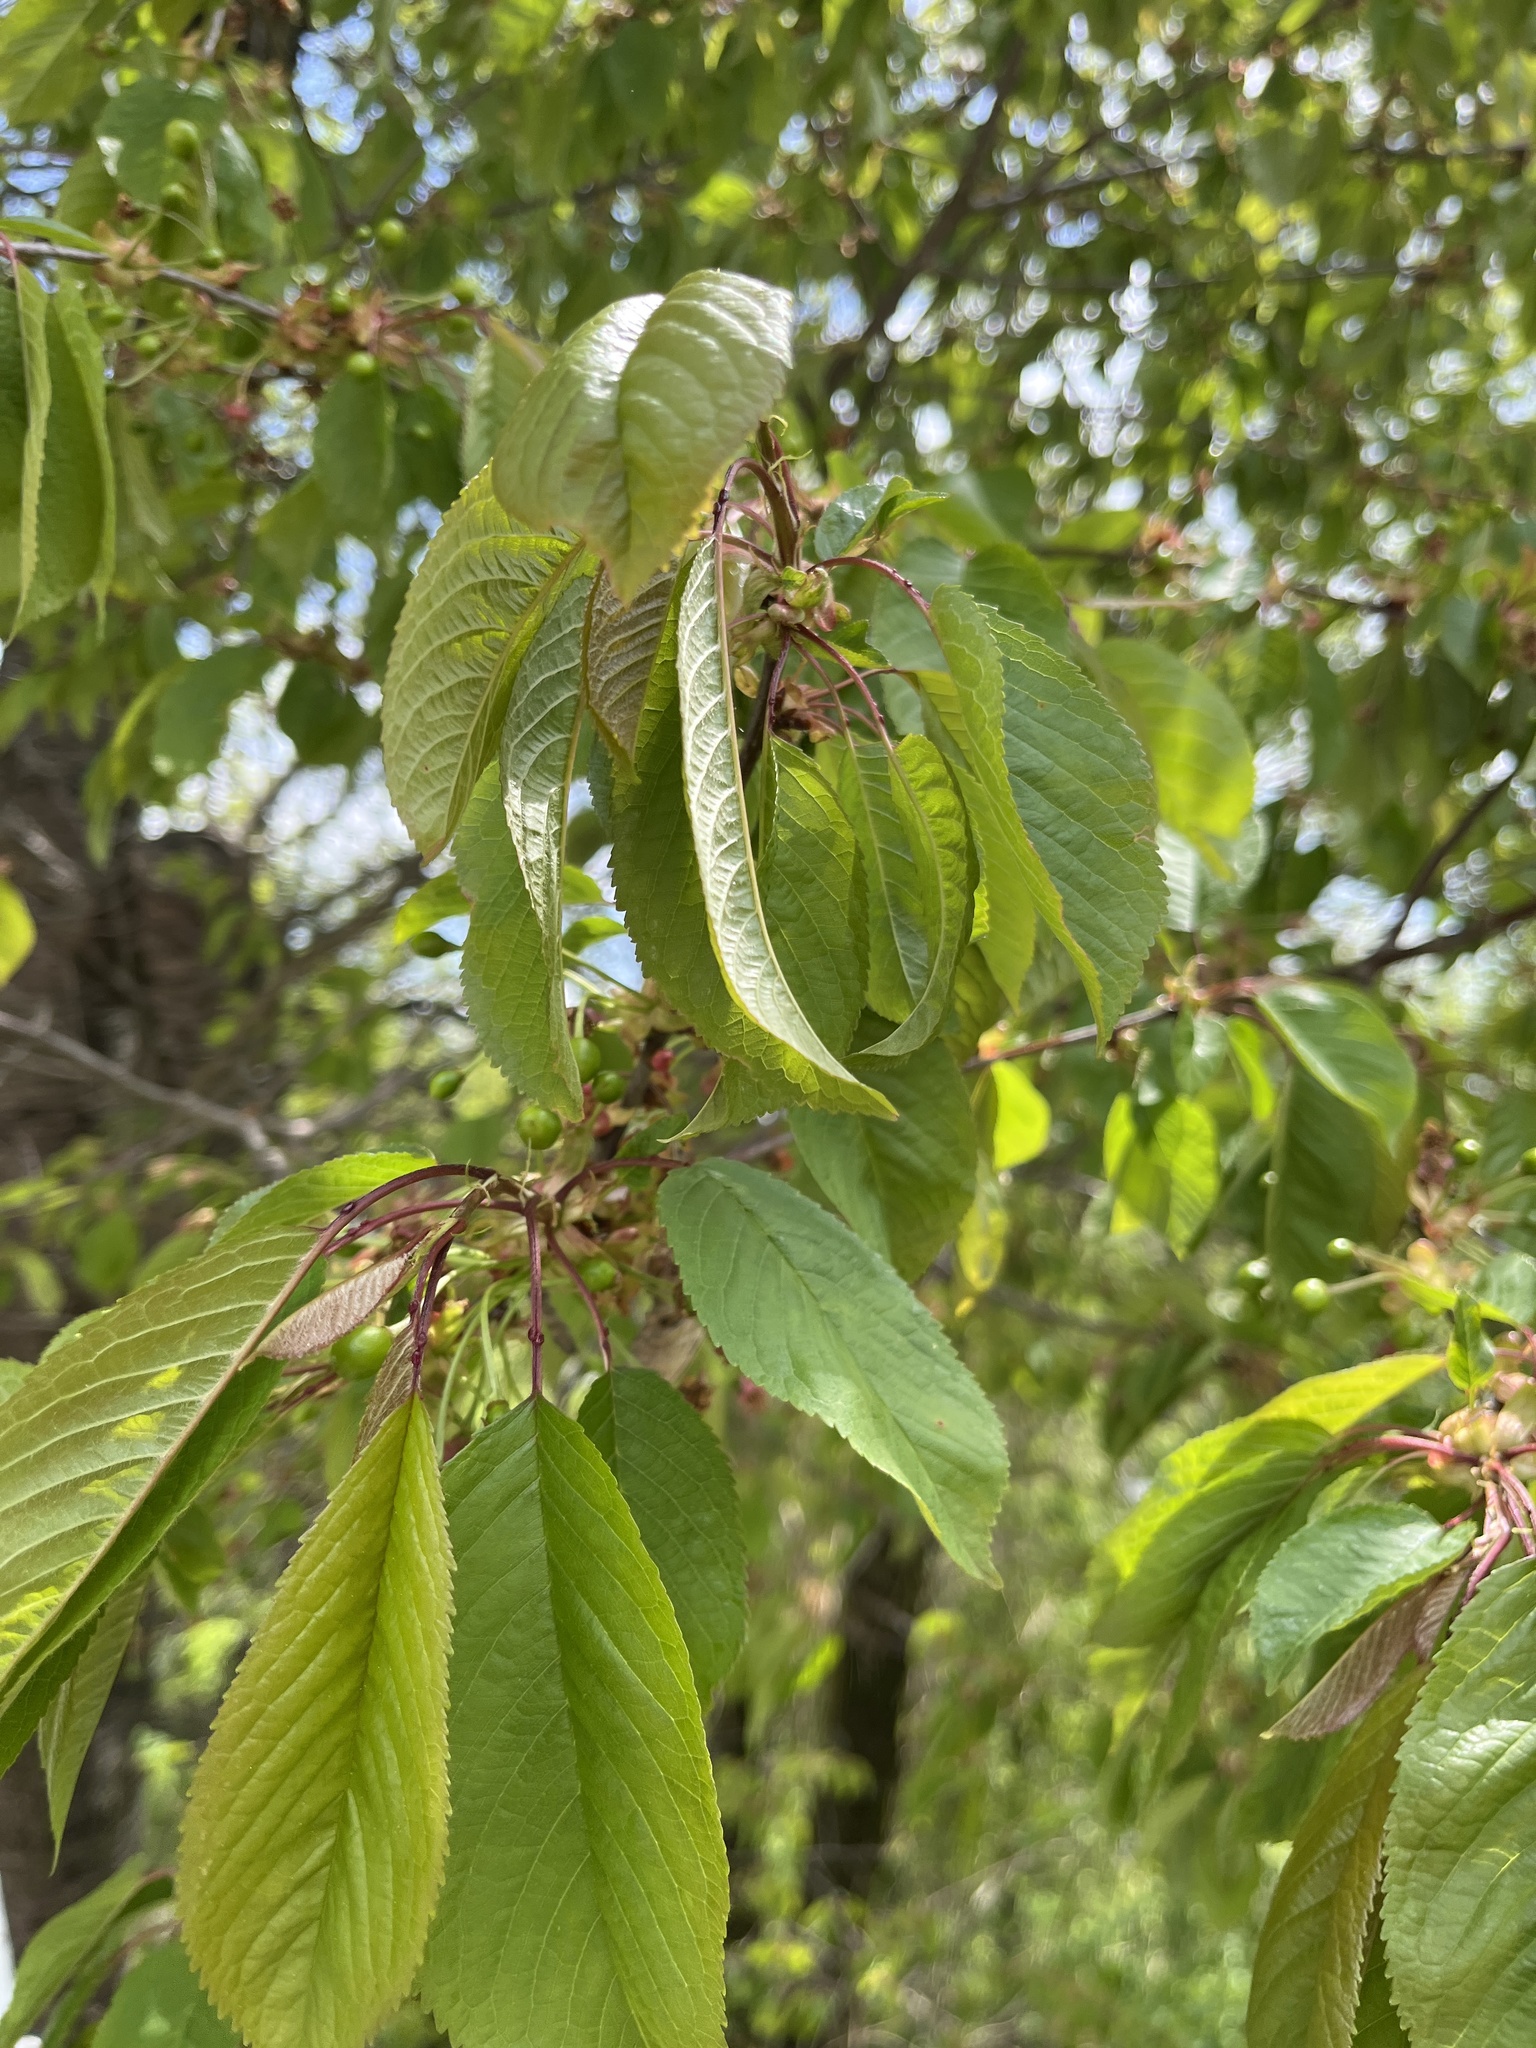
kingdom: Plantae
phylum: Tracheophyta
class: Magnoliopsida
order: Rosales
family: Rosaceae
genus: Prunus
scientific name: Prunus avium
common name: Sweet cherry
